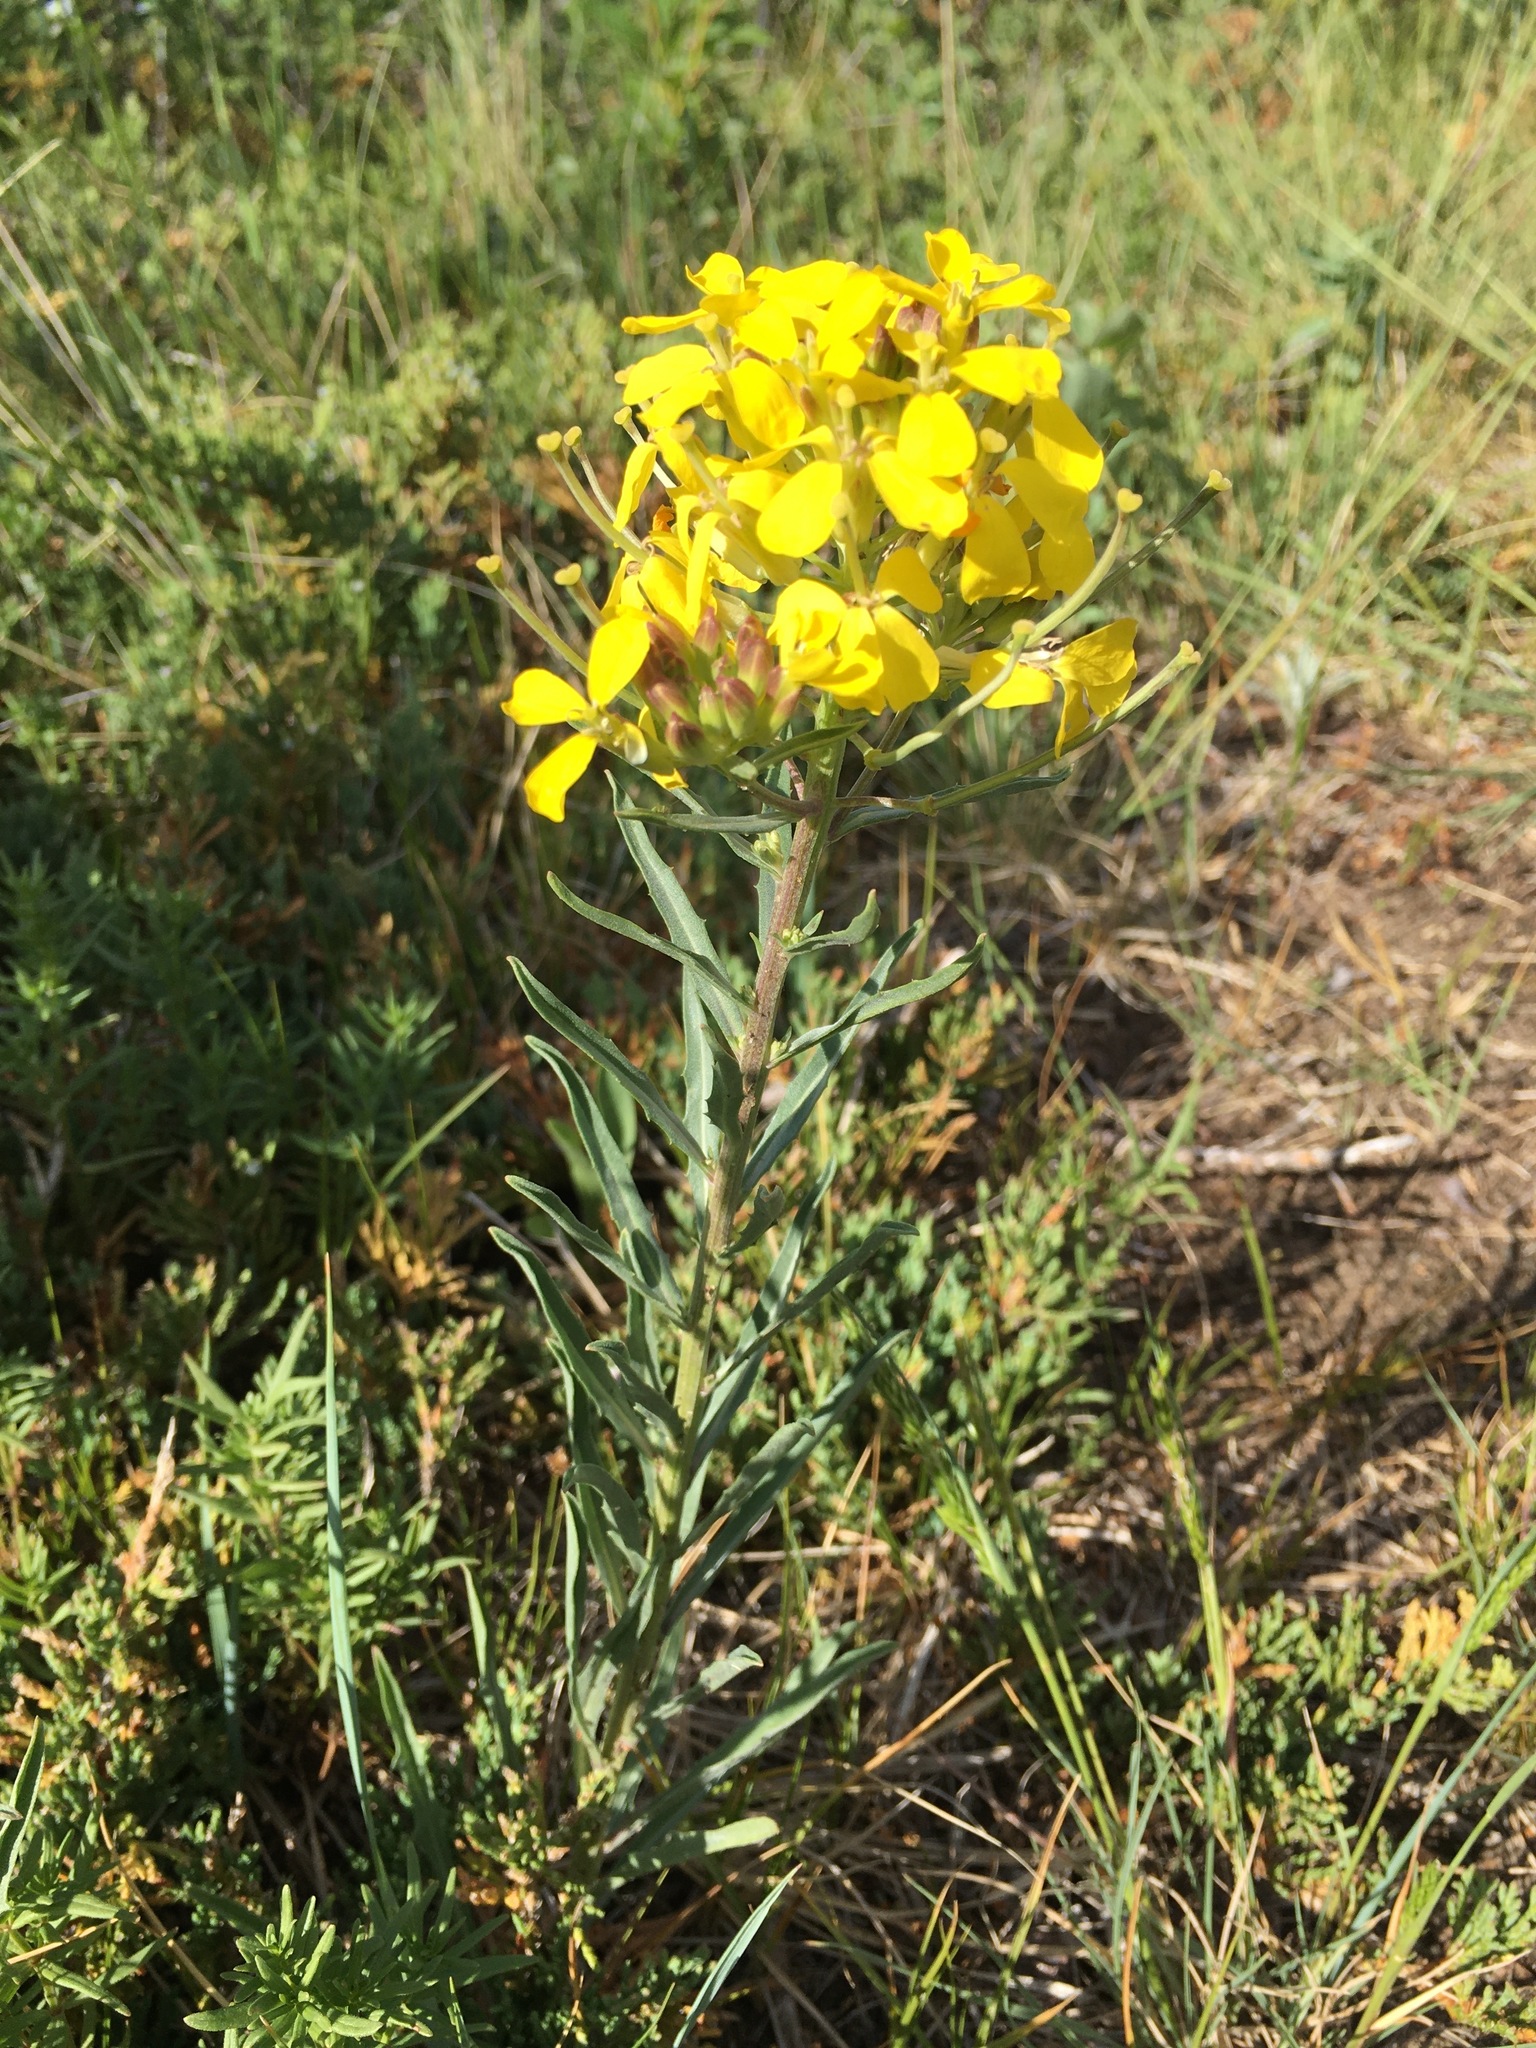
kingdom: Plantae
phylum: Tracheophyta
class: Magnoliopsida
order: Brassicales
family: Brassicaceae
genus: Erysimum
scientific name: Erysimum asperum
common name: Western wallflower
